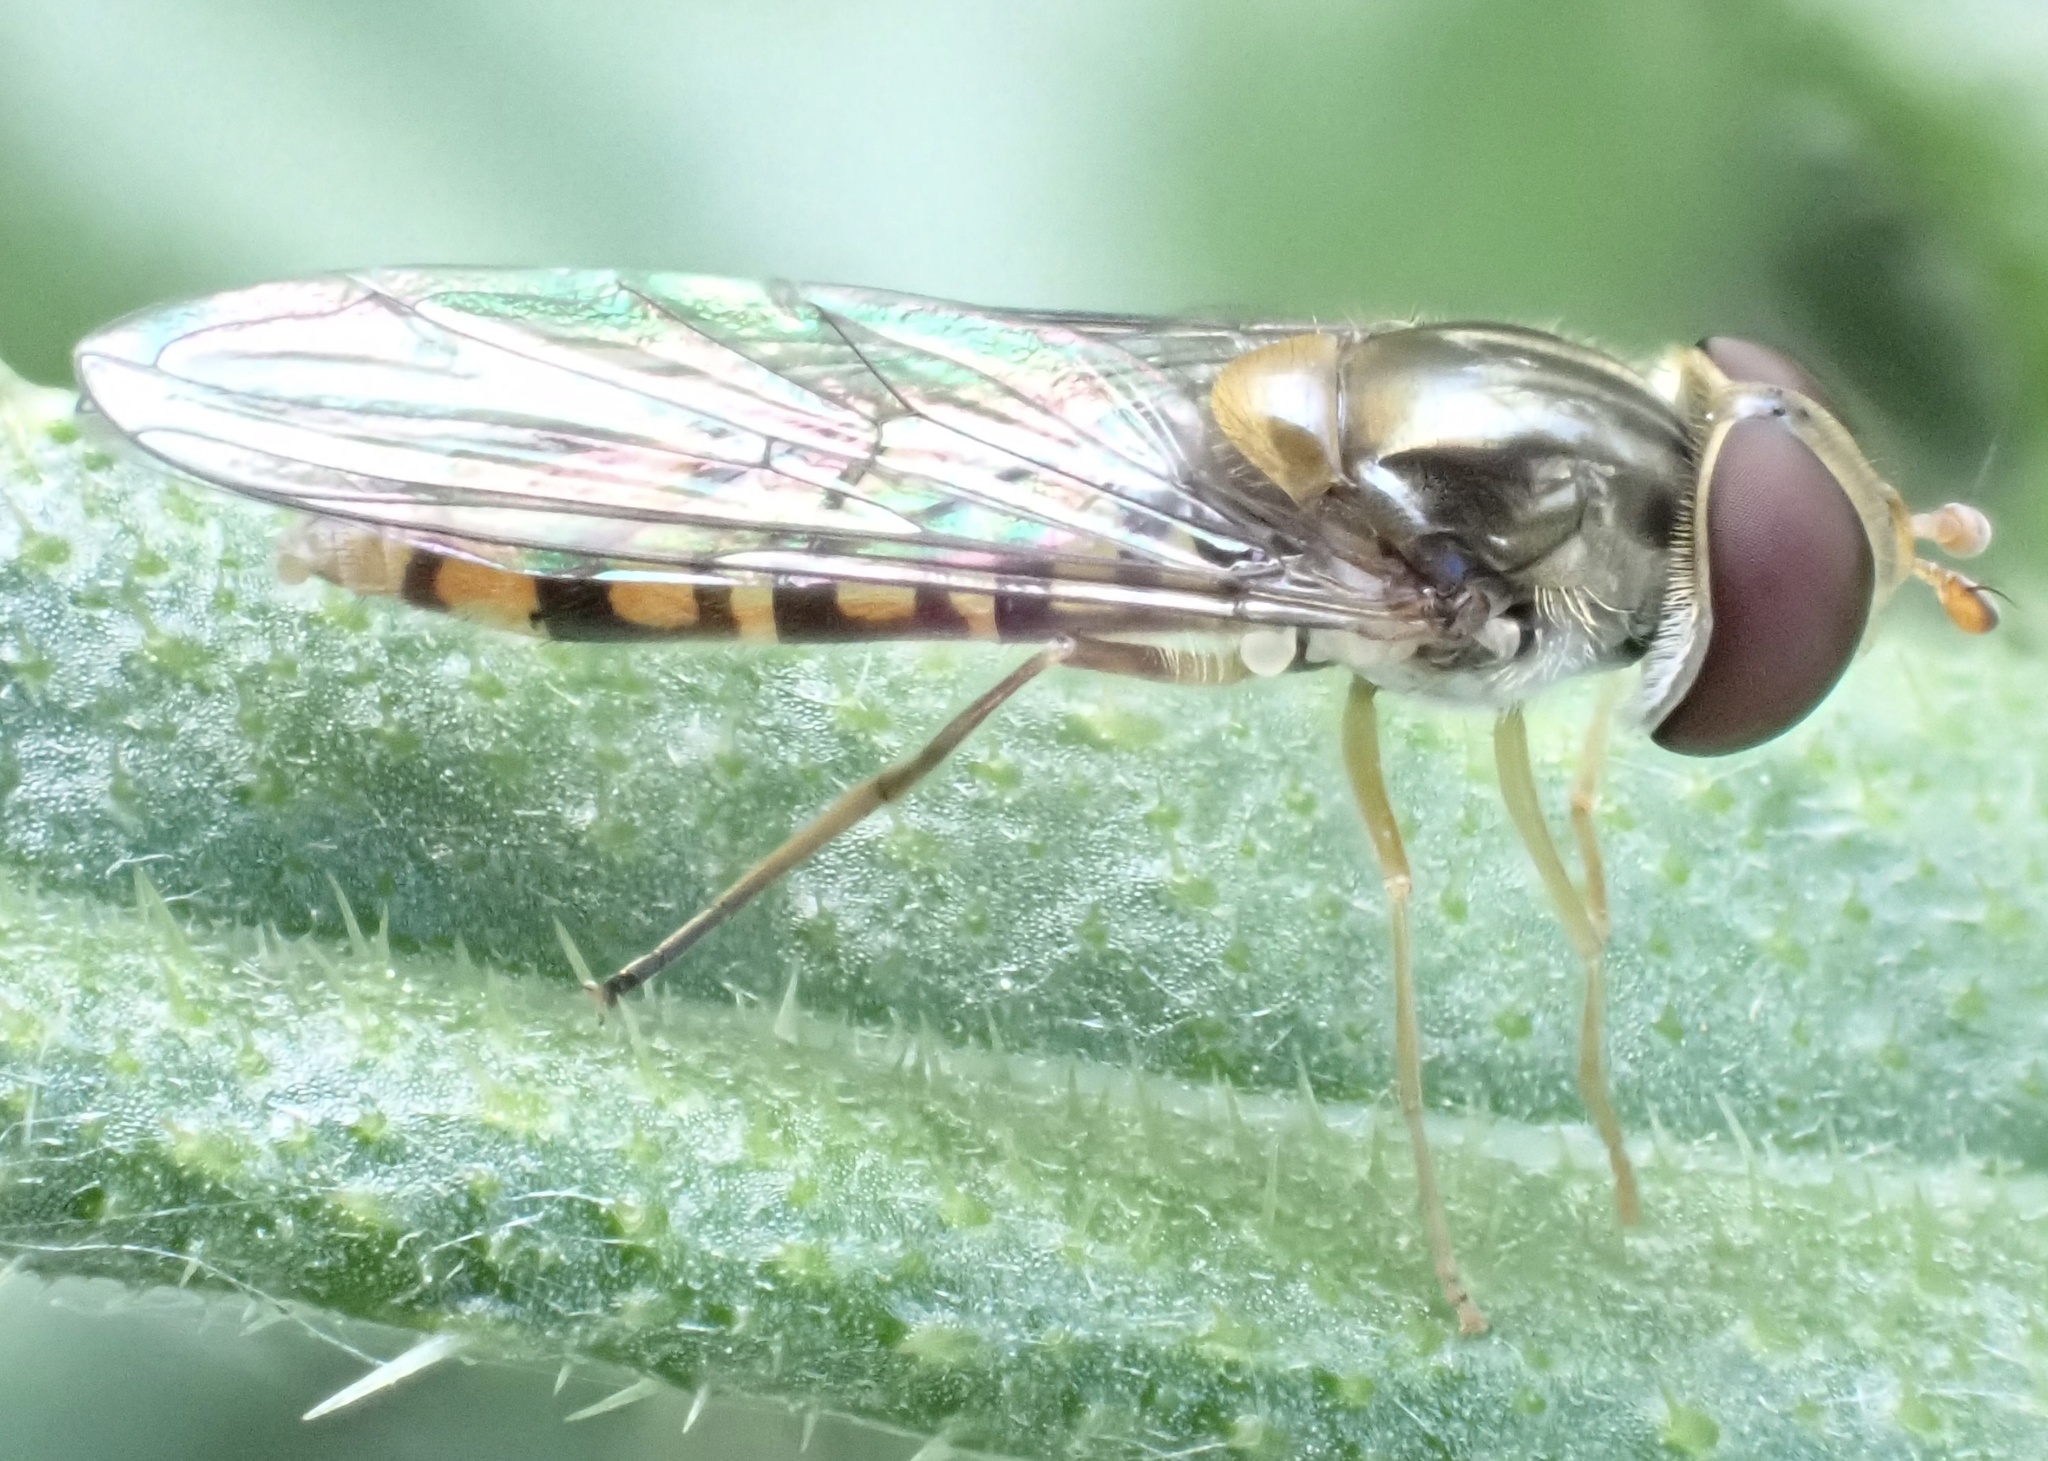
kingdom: Animalia
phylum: Arthropoda
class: Insecta
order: Diptera
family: Syrphidae
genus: Episyrphus
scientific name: Episyrphus balteatus
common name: Marmalade hoverfly
